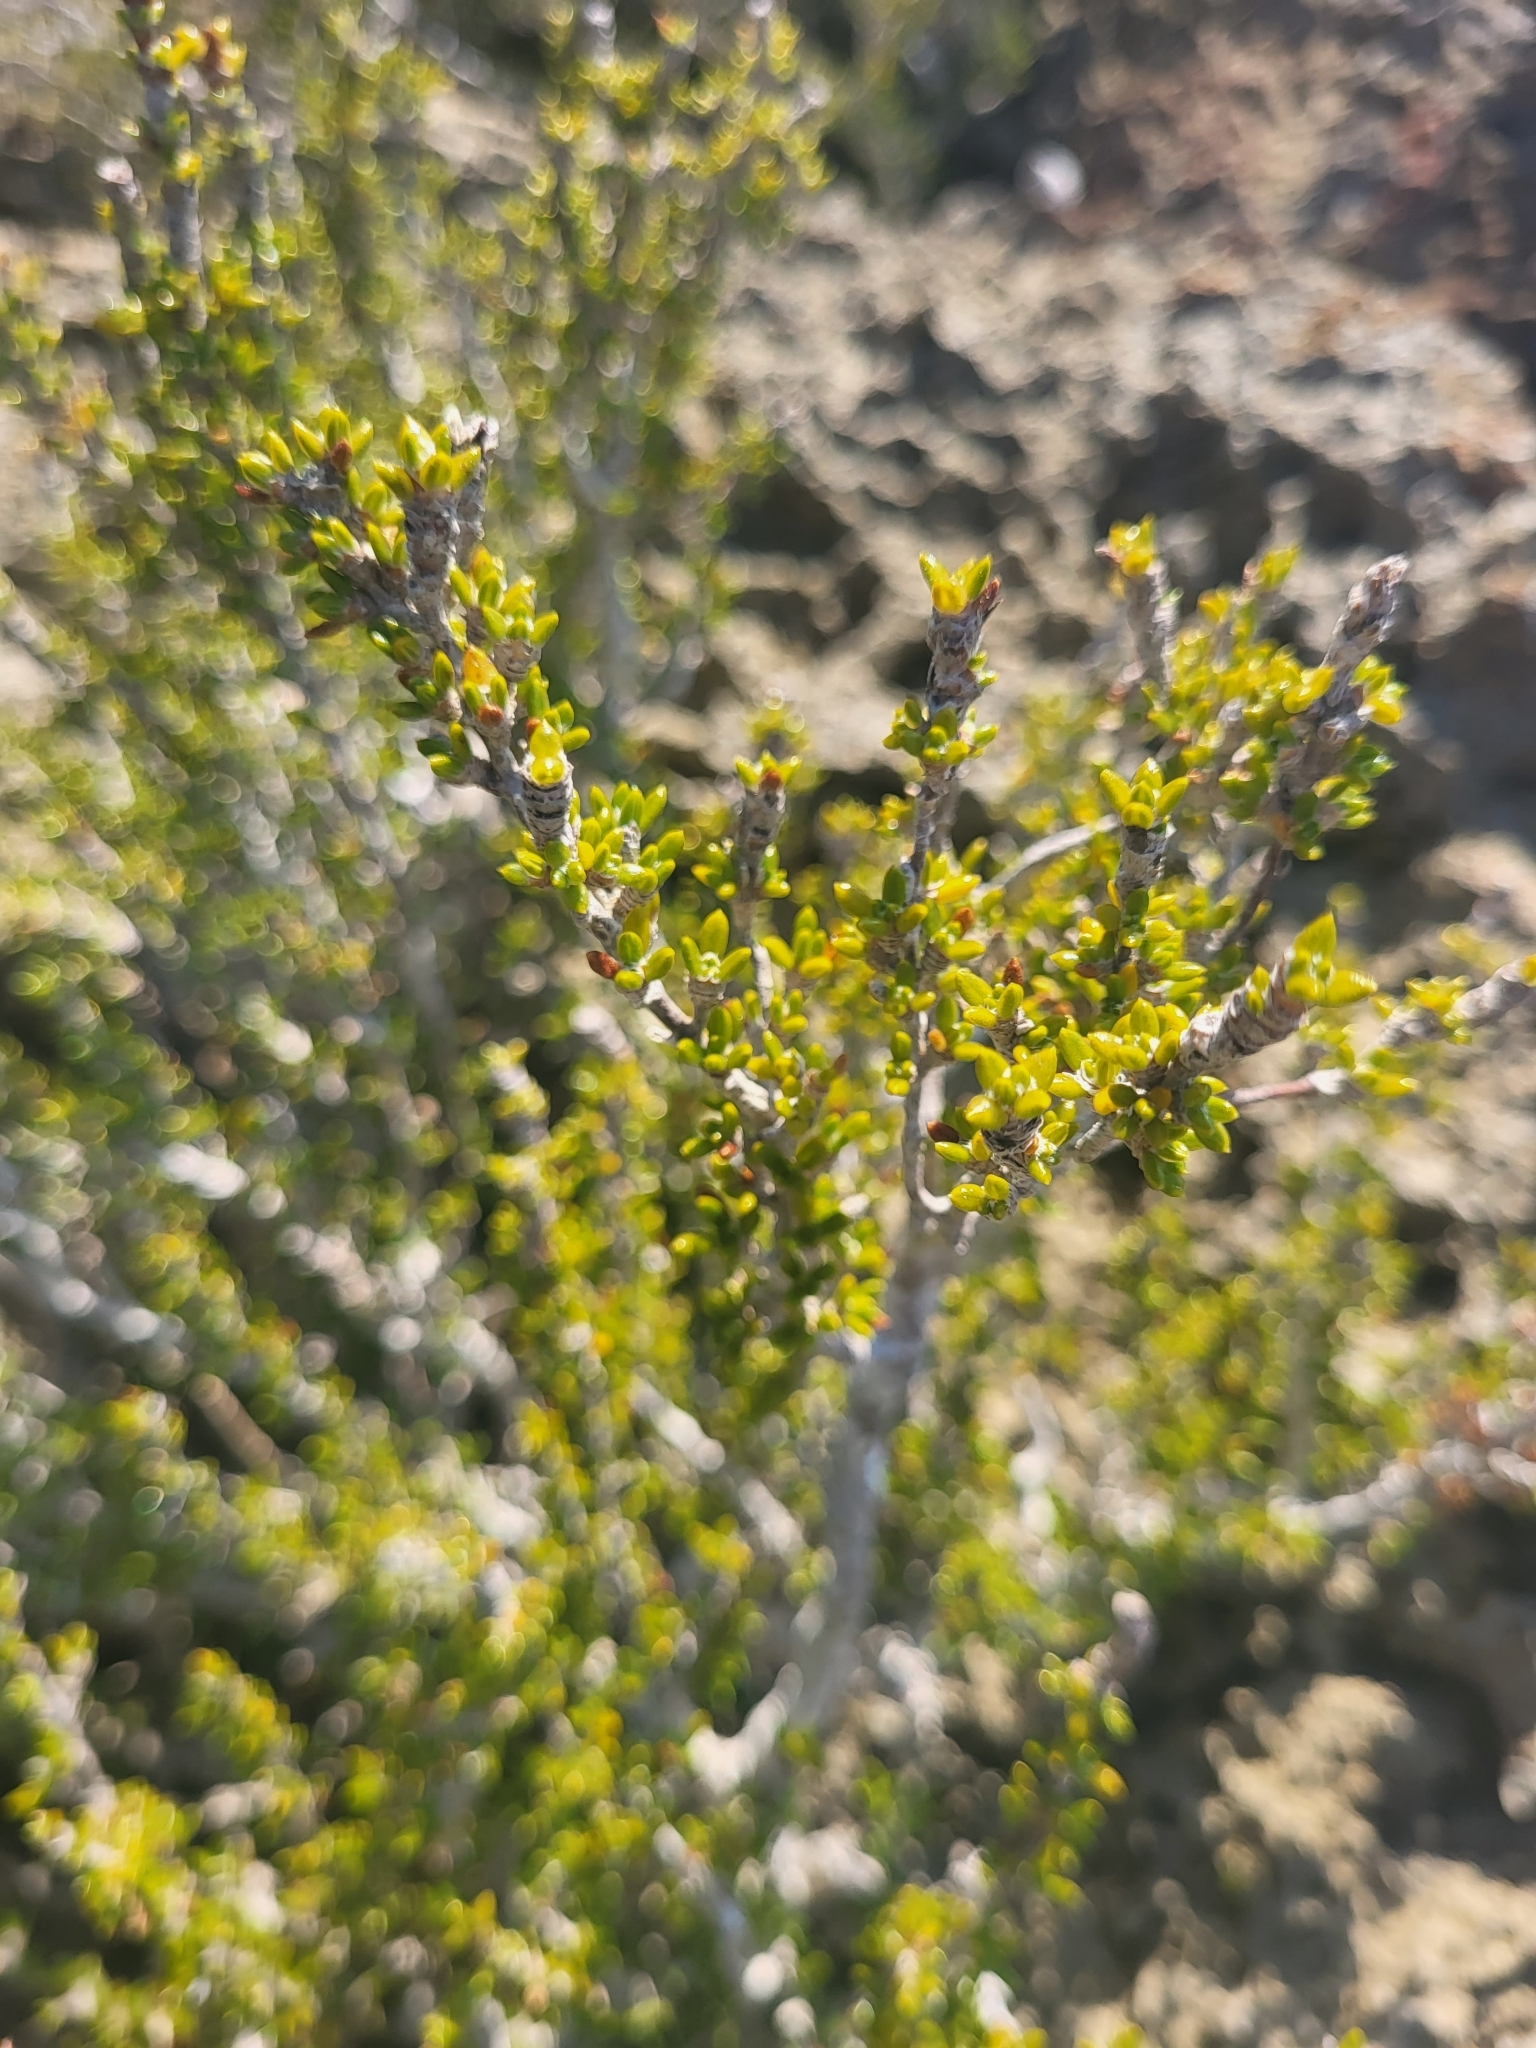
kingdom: Plantae
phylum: Tracheophyta
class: Magnoliopsida
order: Gentianales
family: Rubiaceae
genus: Rachicallis
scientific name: Rachicallis americana
